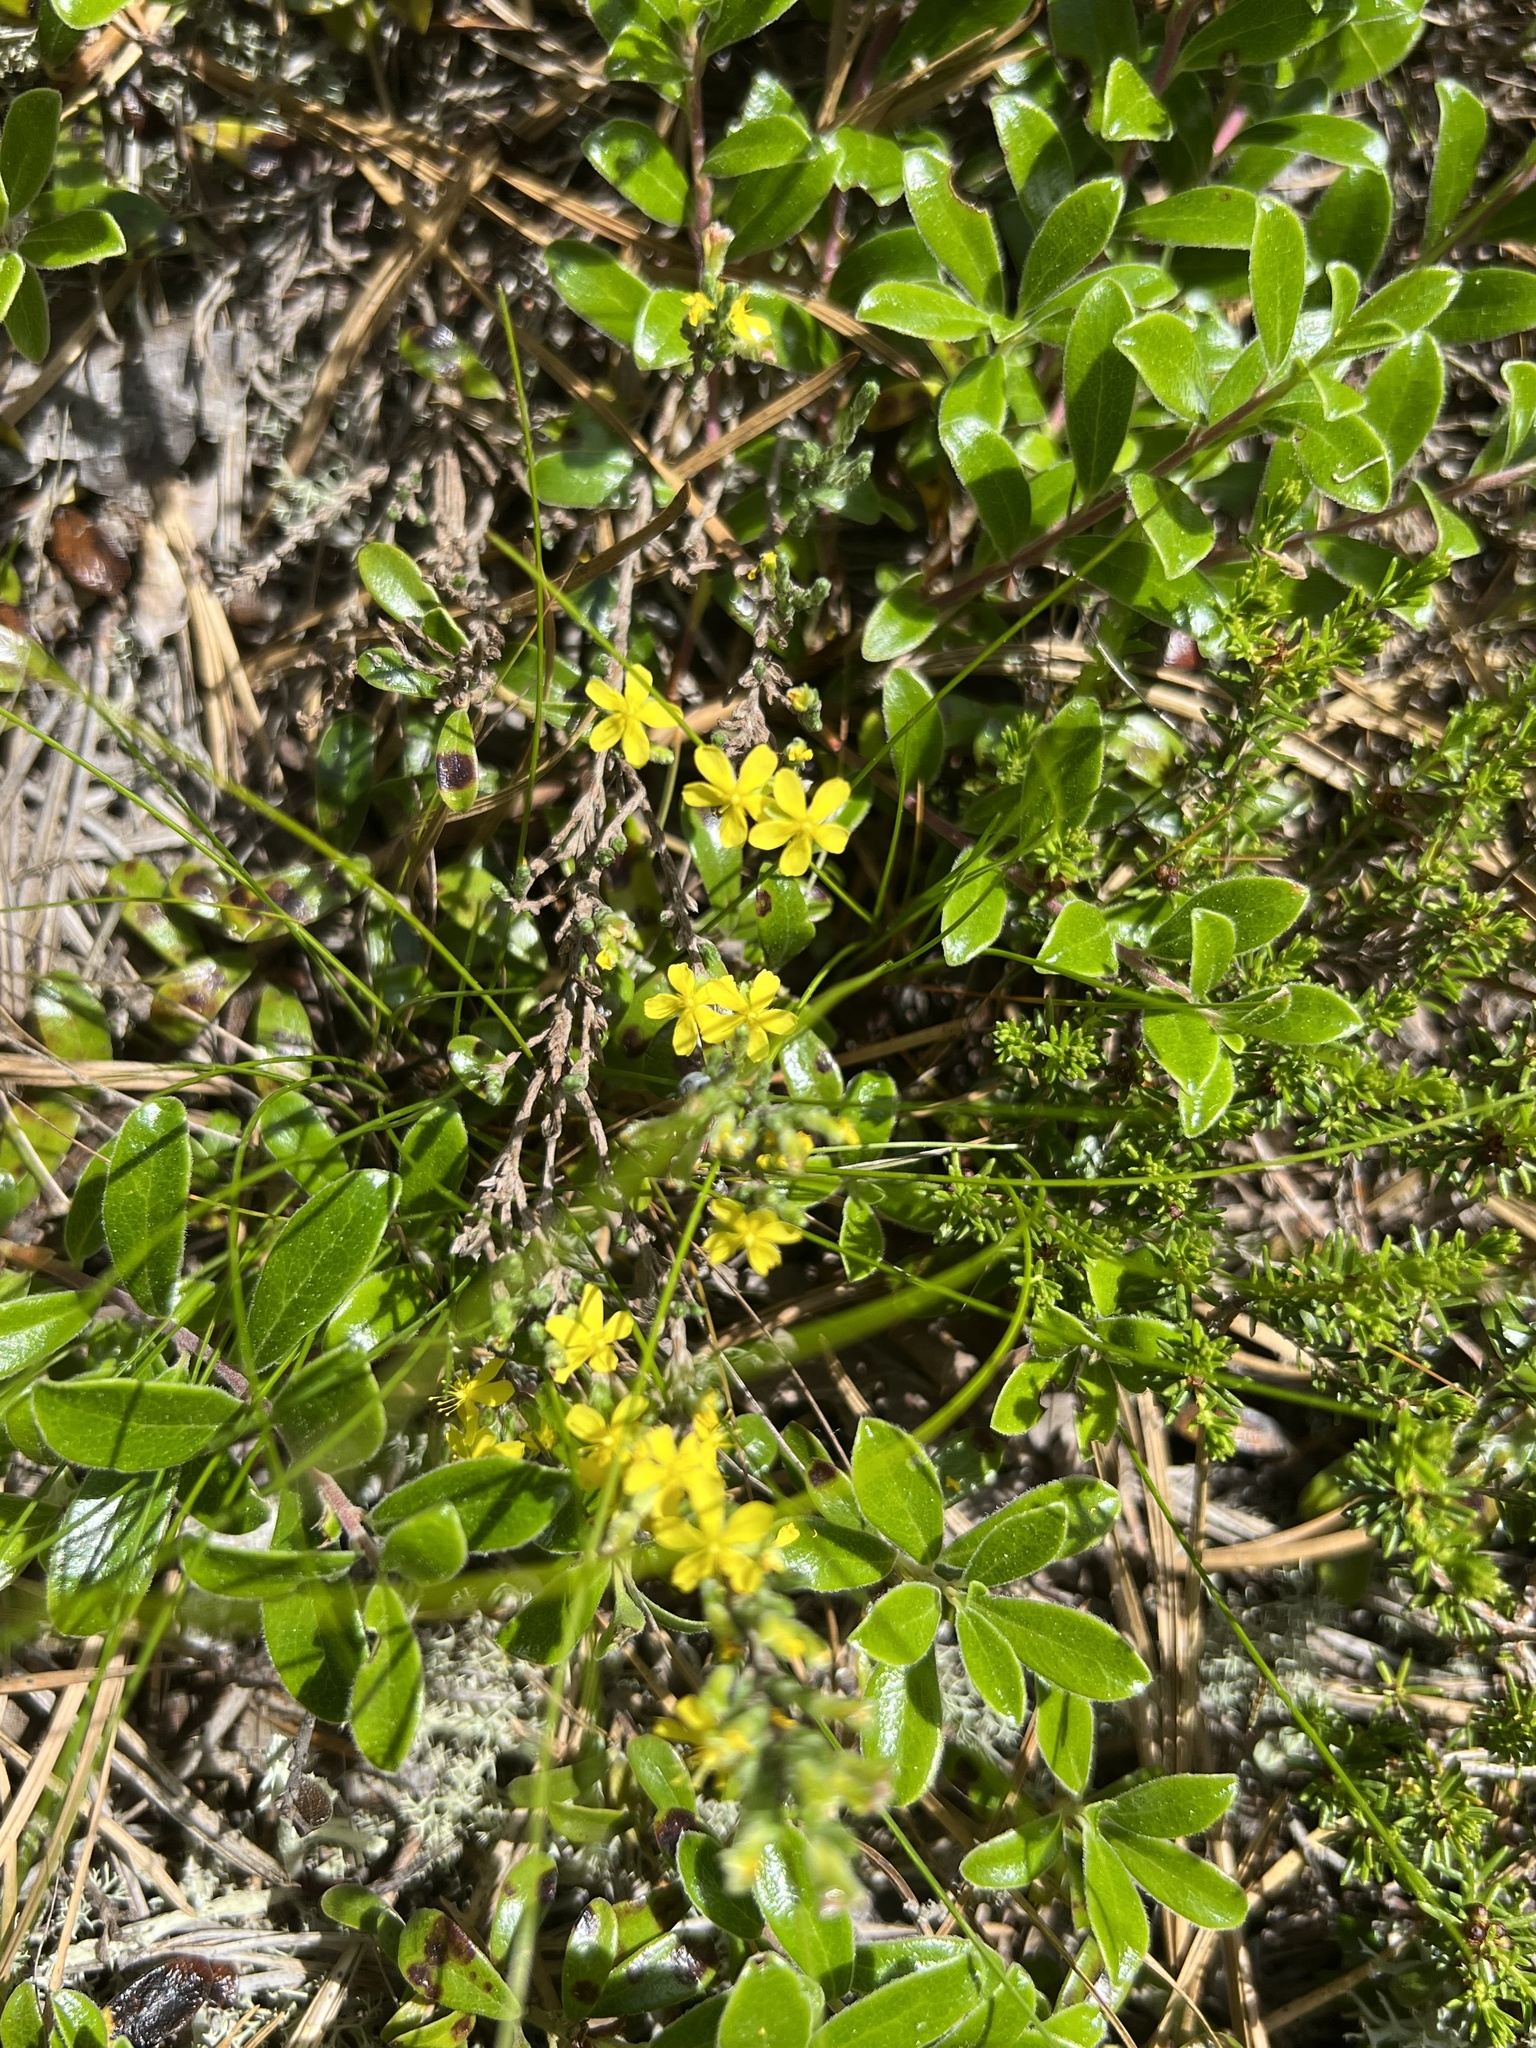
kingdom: Plantae
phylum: Tracheophyta
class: Magnoliopsida
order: Malvales
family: Cistaceae
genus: Hudsonia
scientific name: Hudsonia tomentosa
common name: Beach-heath
